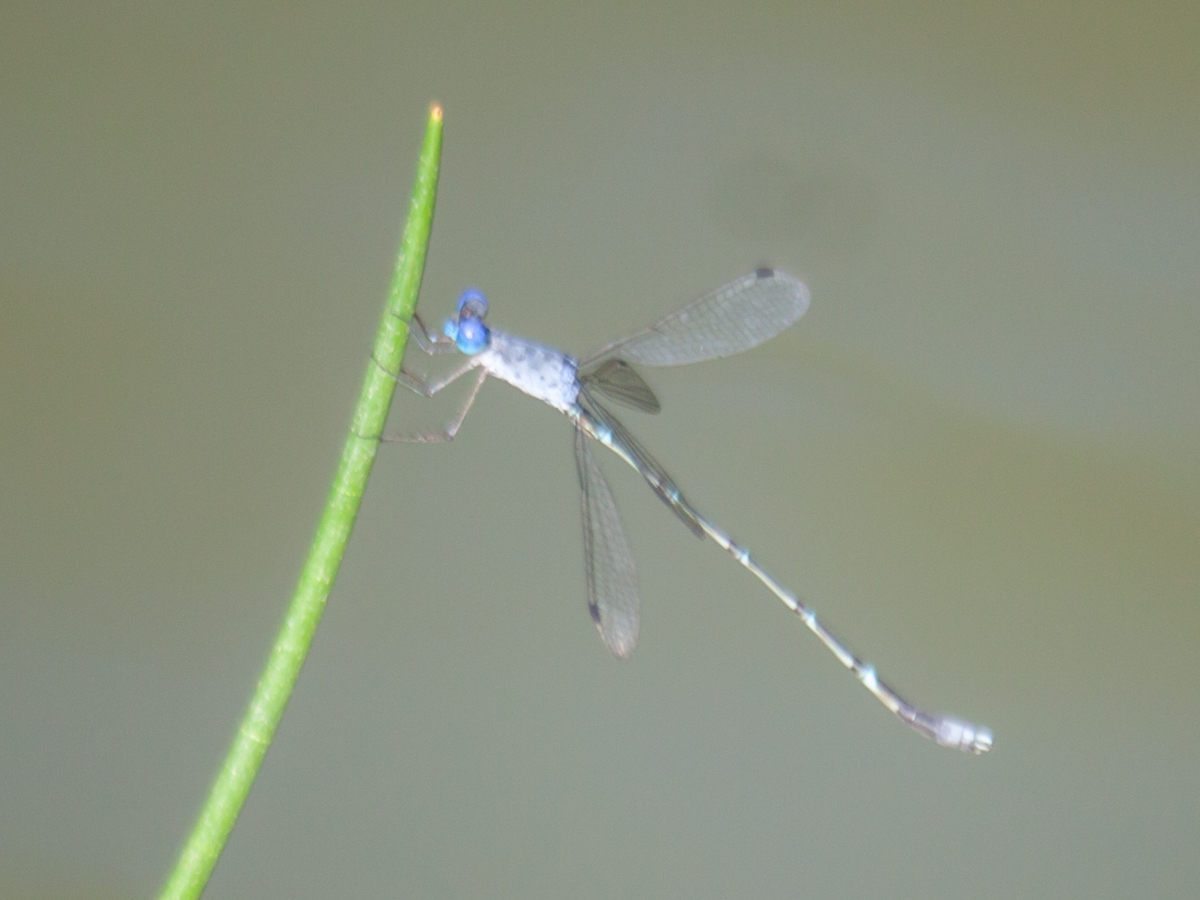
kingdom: Animalia
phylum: Arthropoda
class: Insecta
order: Odonata
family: Lestidae
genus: Lestes
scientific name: Lestes praemorsus
